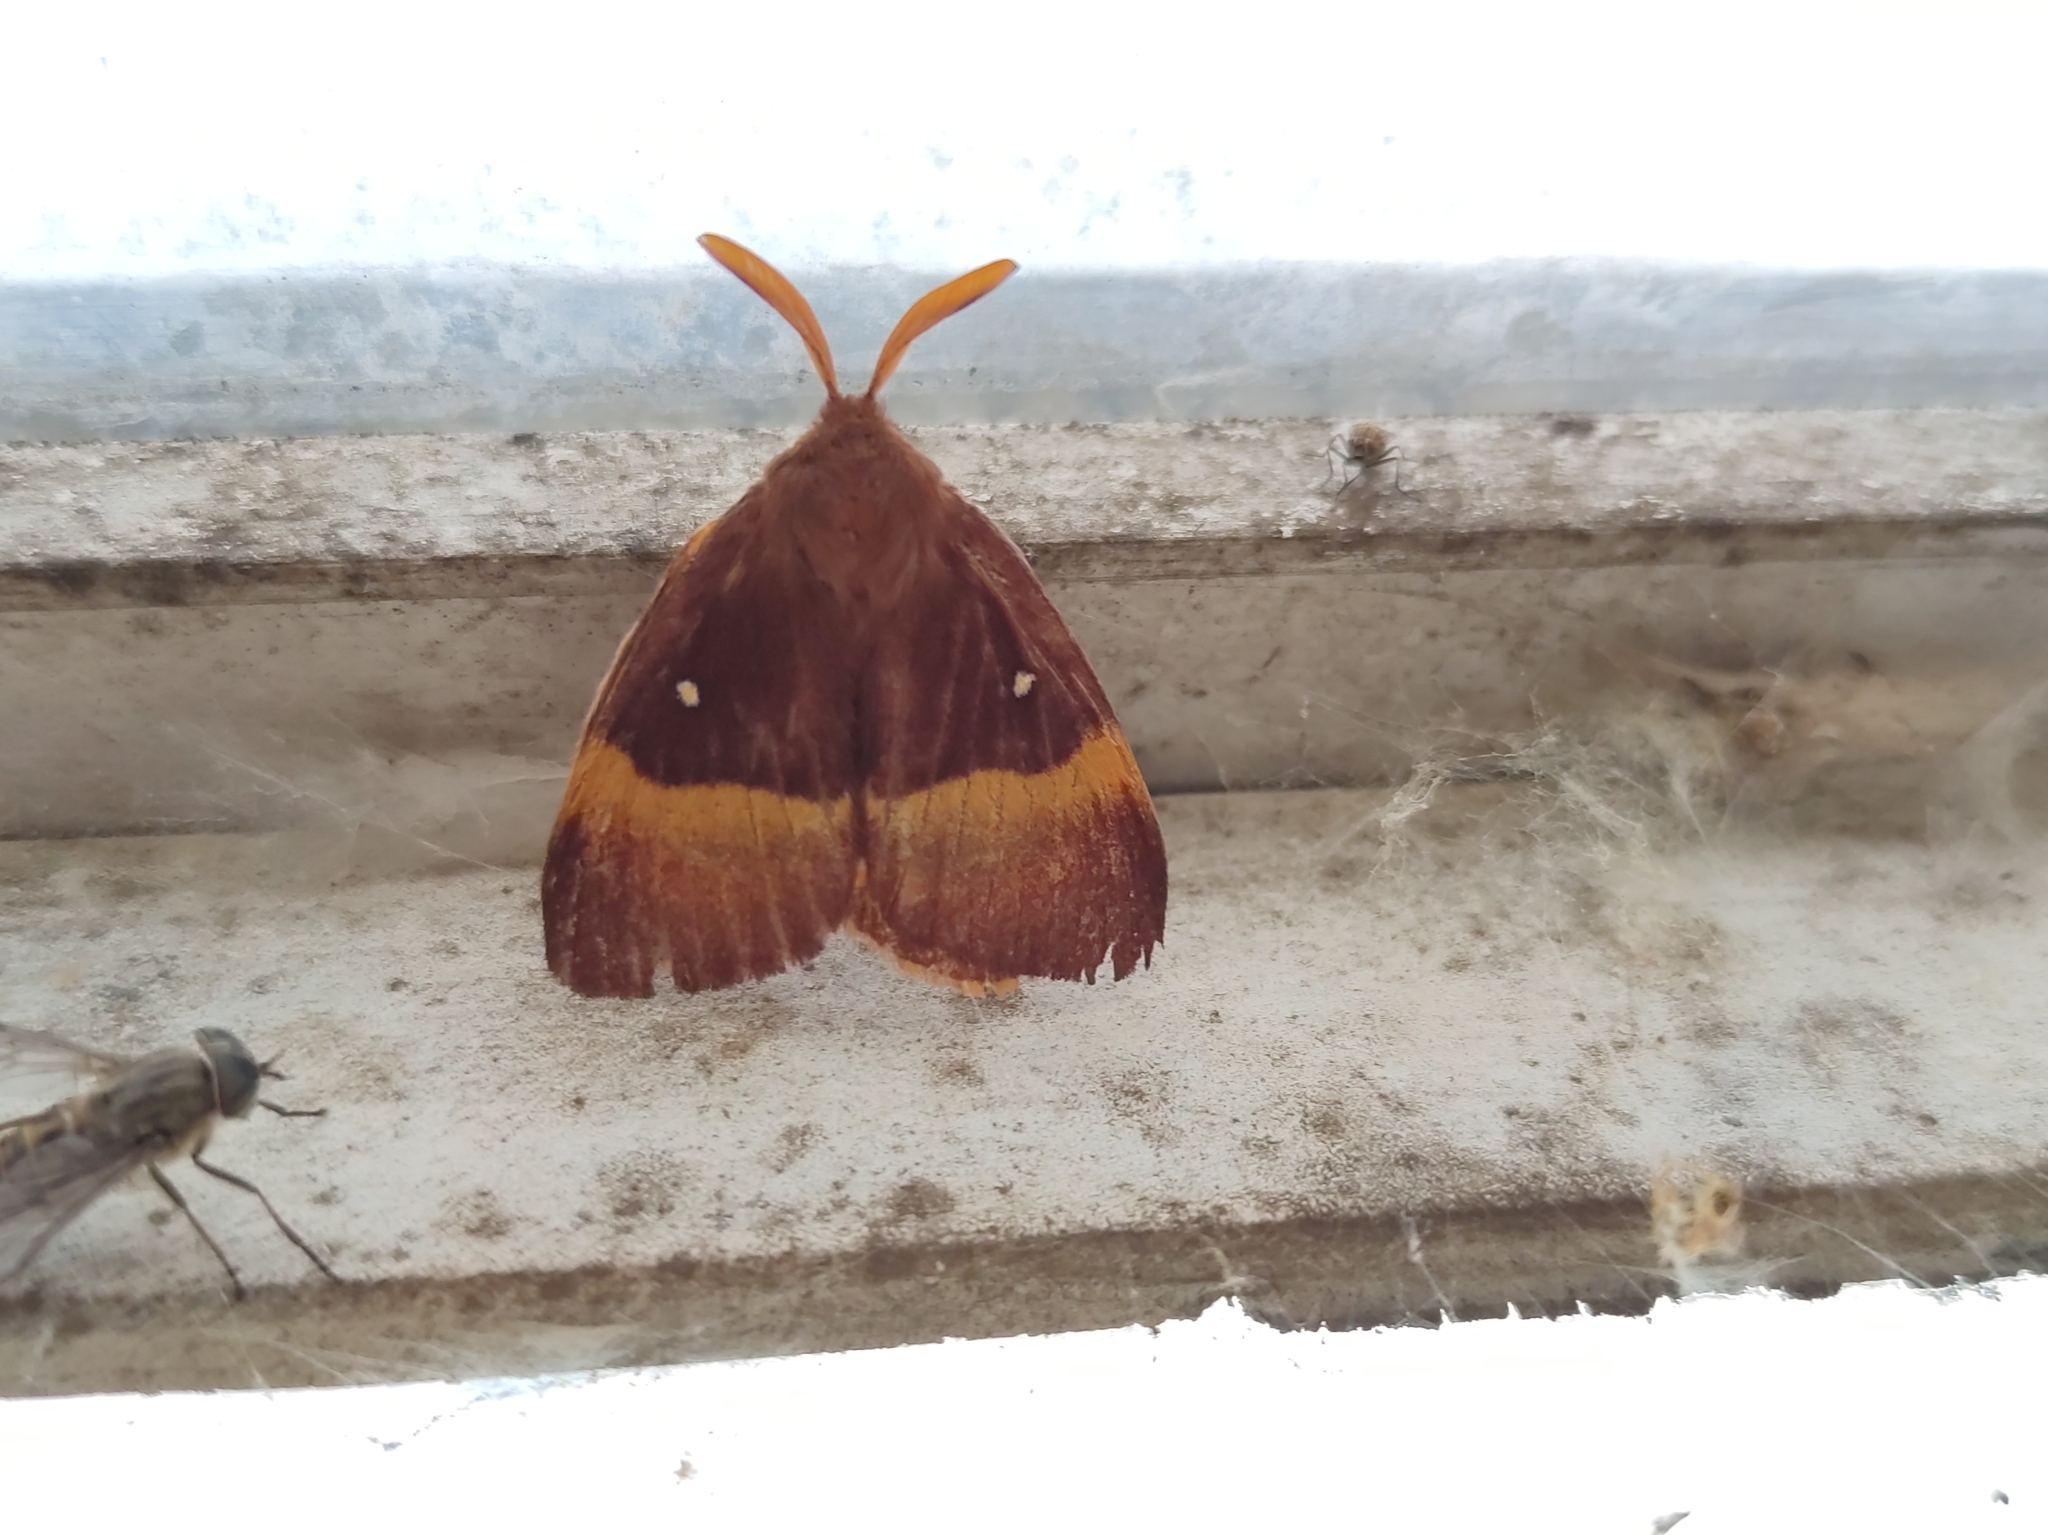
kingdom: Animalia
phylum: Arthropoda
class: Insecta
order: Lepidoptera
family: Lasiocampidae
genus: Lasiocampa
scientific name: Lasiocampa quercus
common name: Oak eggar
